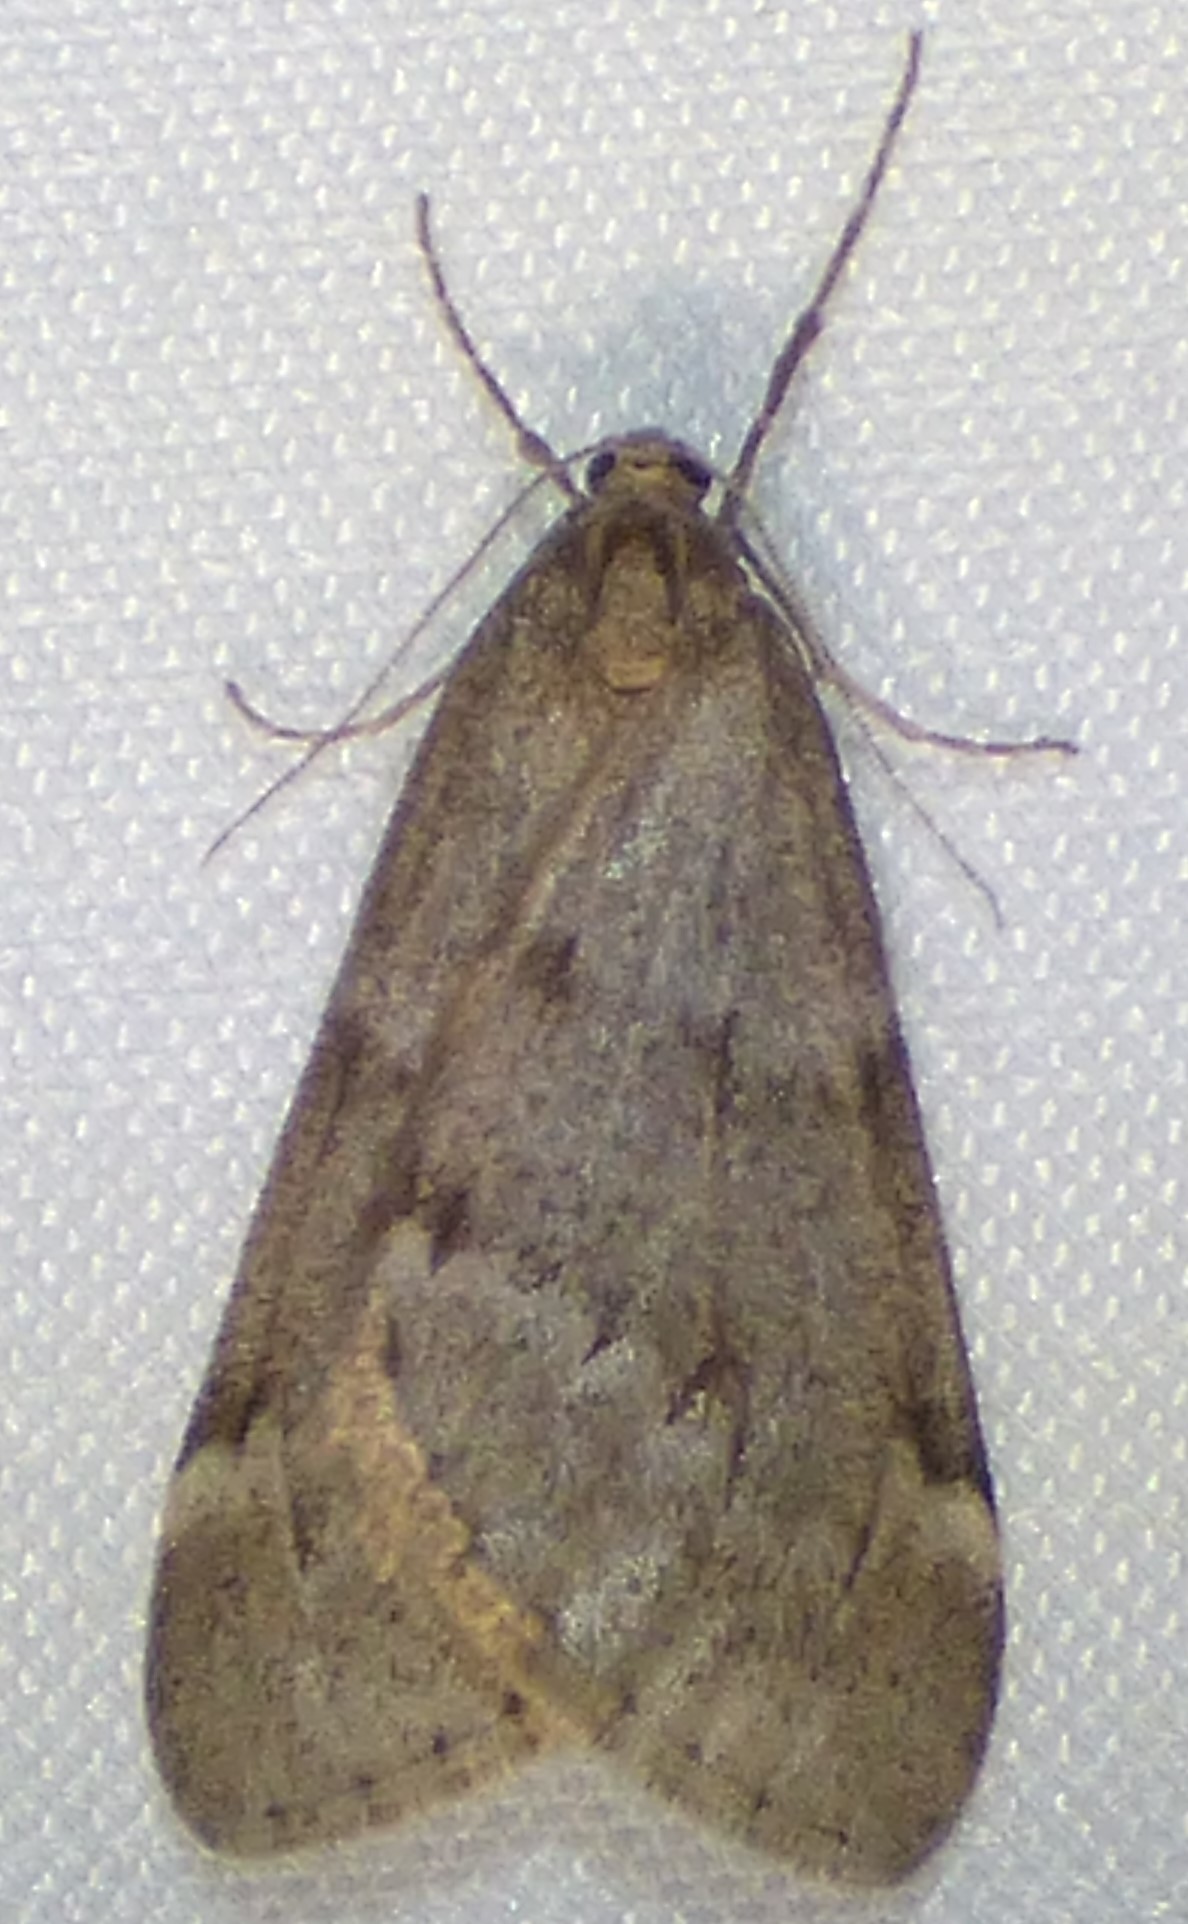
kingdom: Animalia
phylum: Arthropoda
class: Insecta
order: Lepidoptera
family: Geometridae
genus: Alsophila
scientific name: Alsophila pometaria
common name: Fall cankerworm
